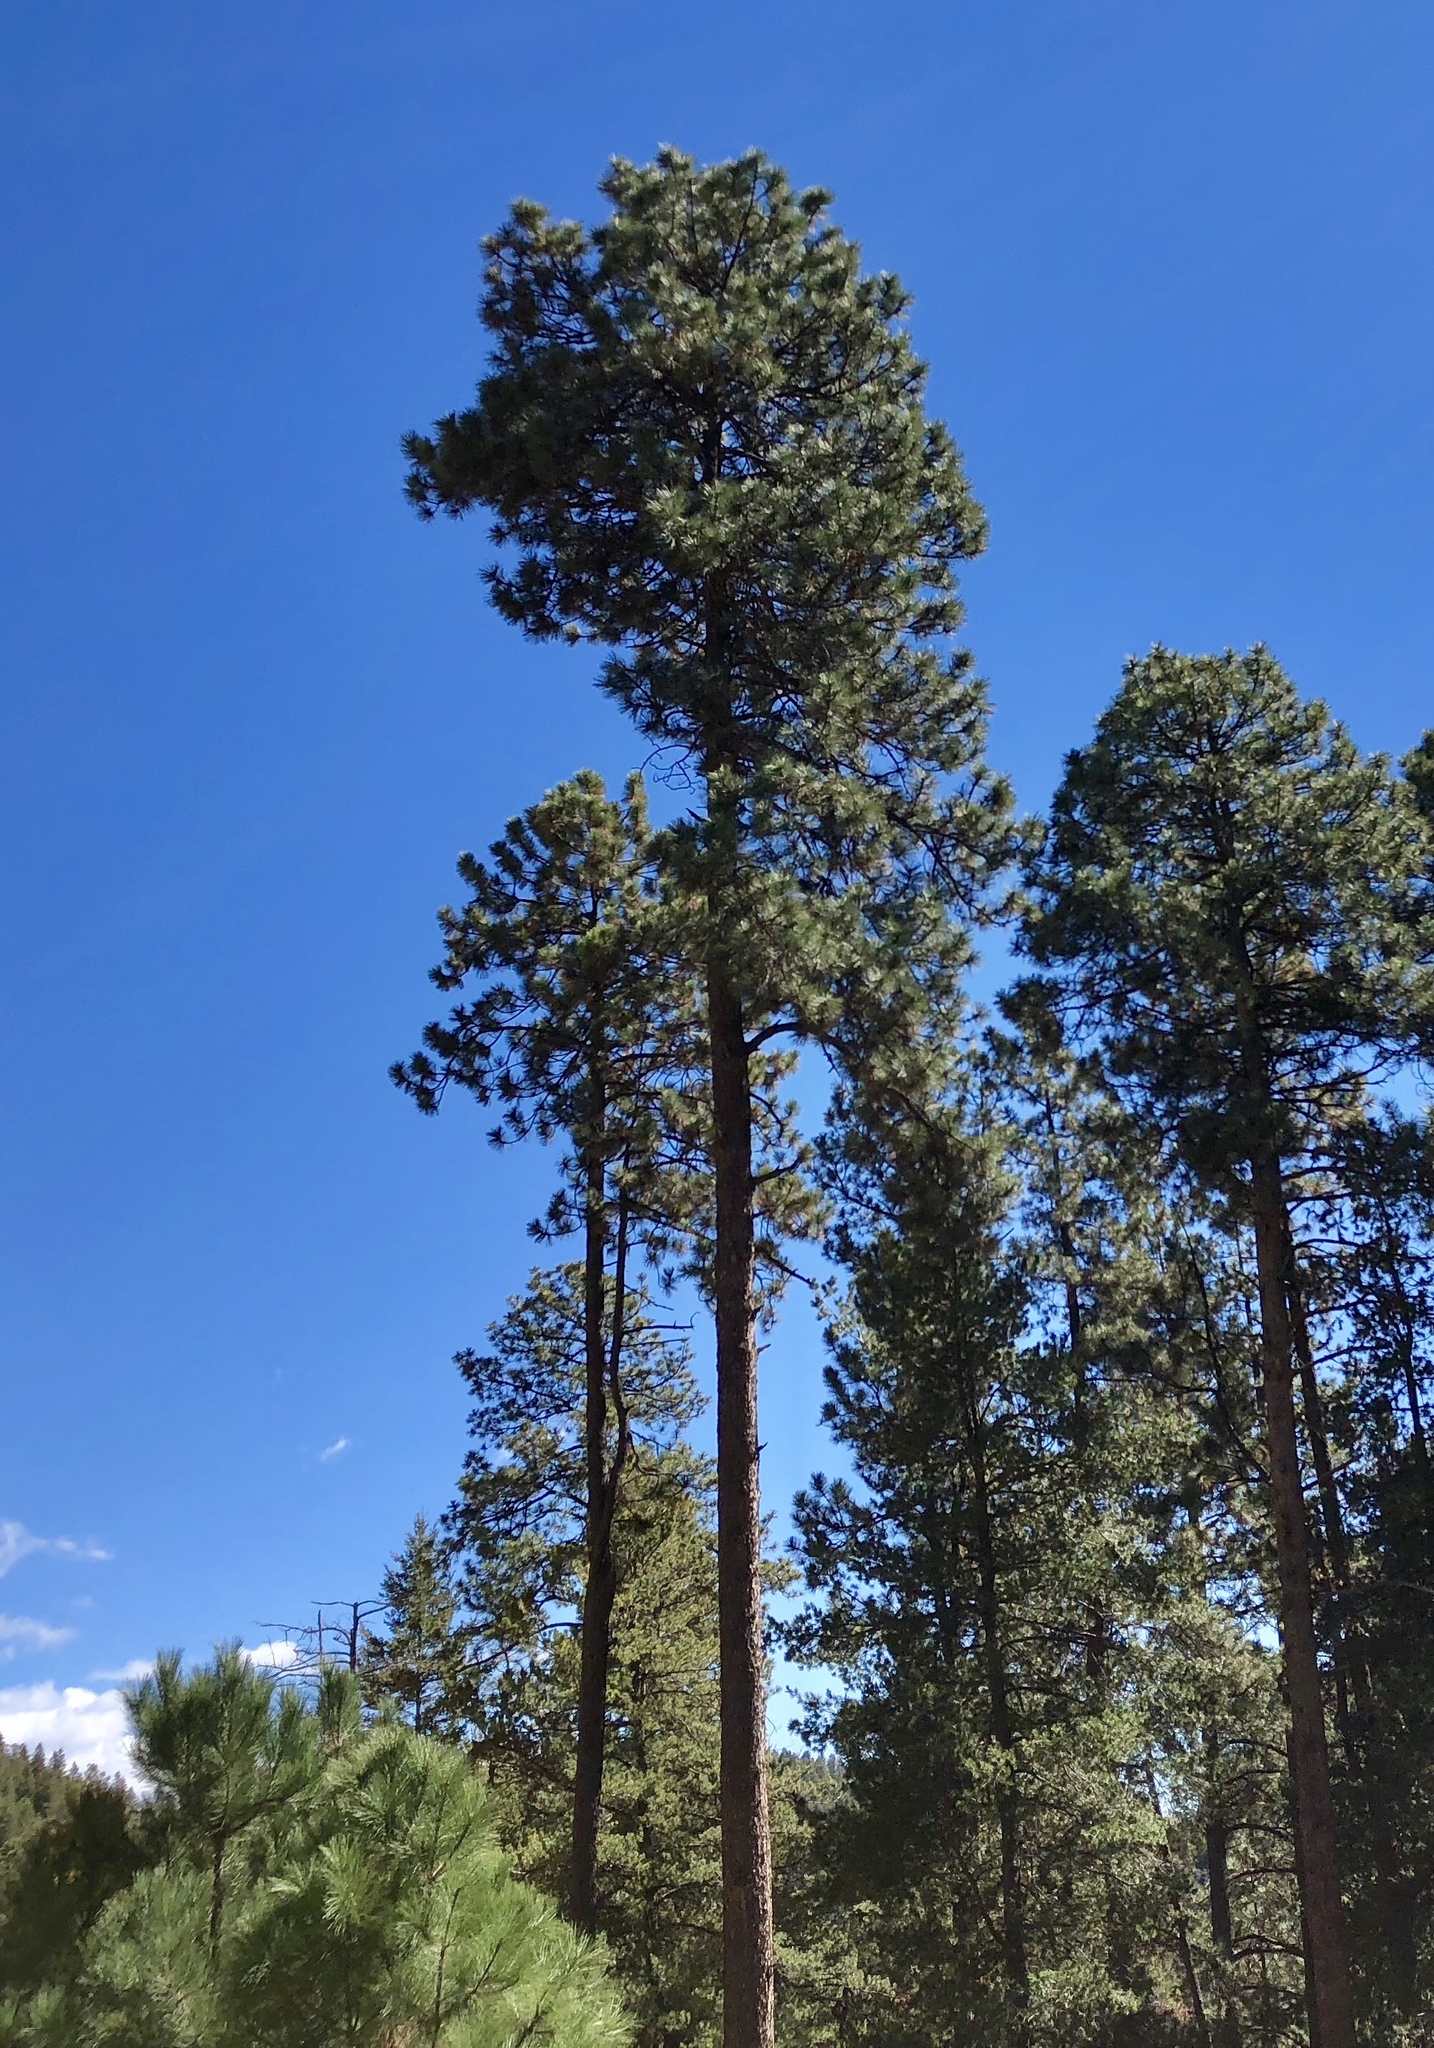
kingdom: Plantae
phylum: Tracheophyta
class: Pinopsida
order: Pinales
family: Pinaceae
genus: Pinus
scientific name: Pinus ponderosa
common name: Western yellow-pine
